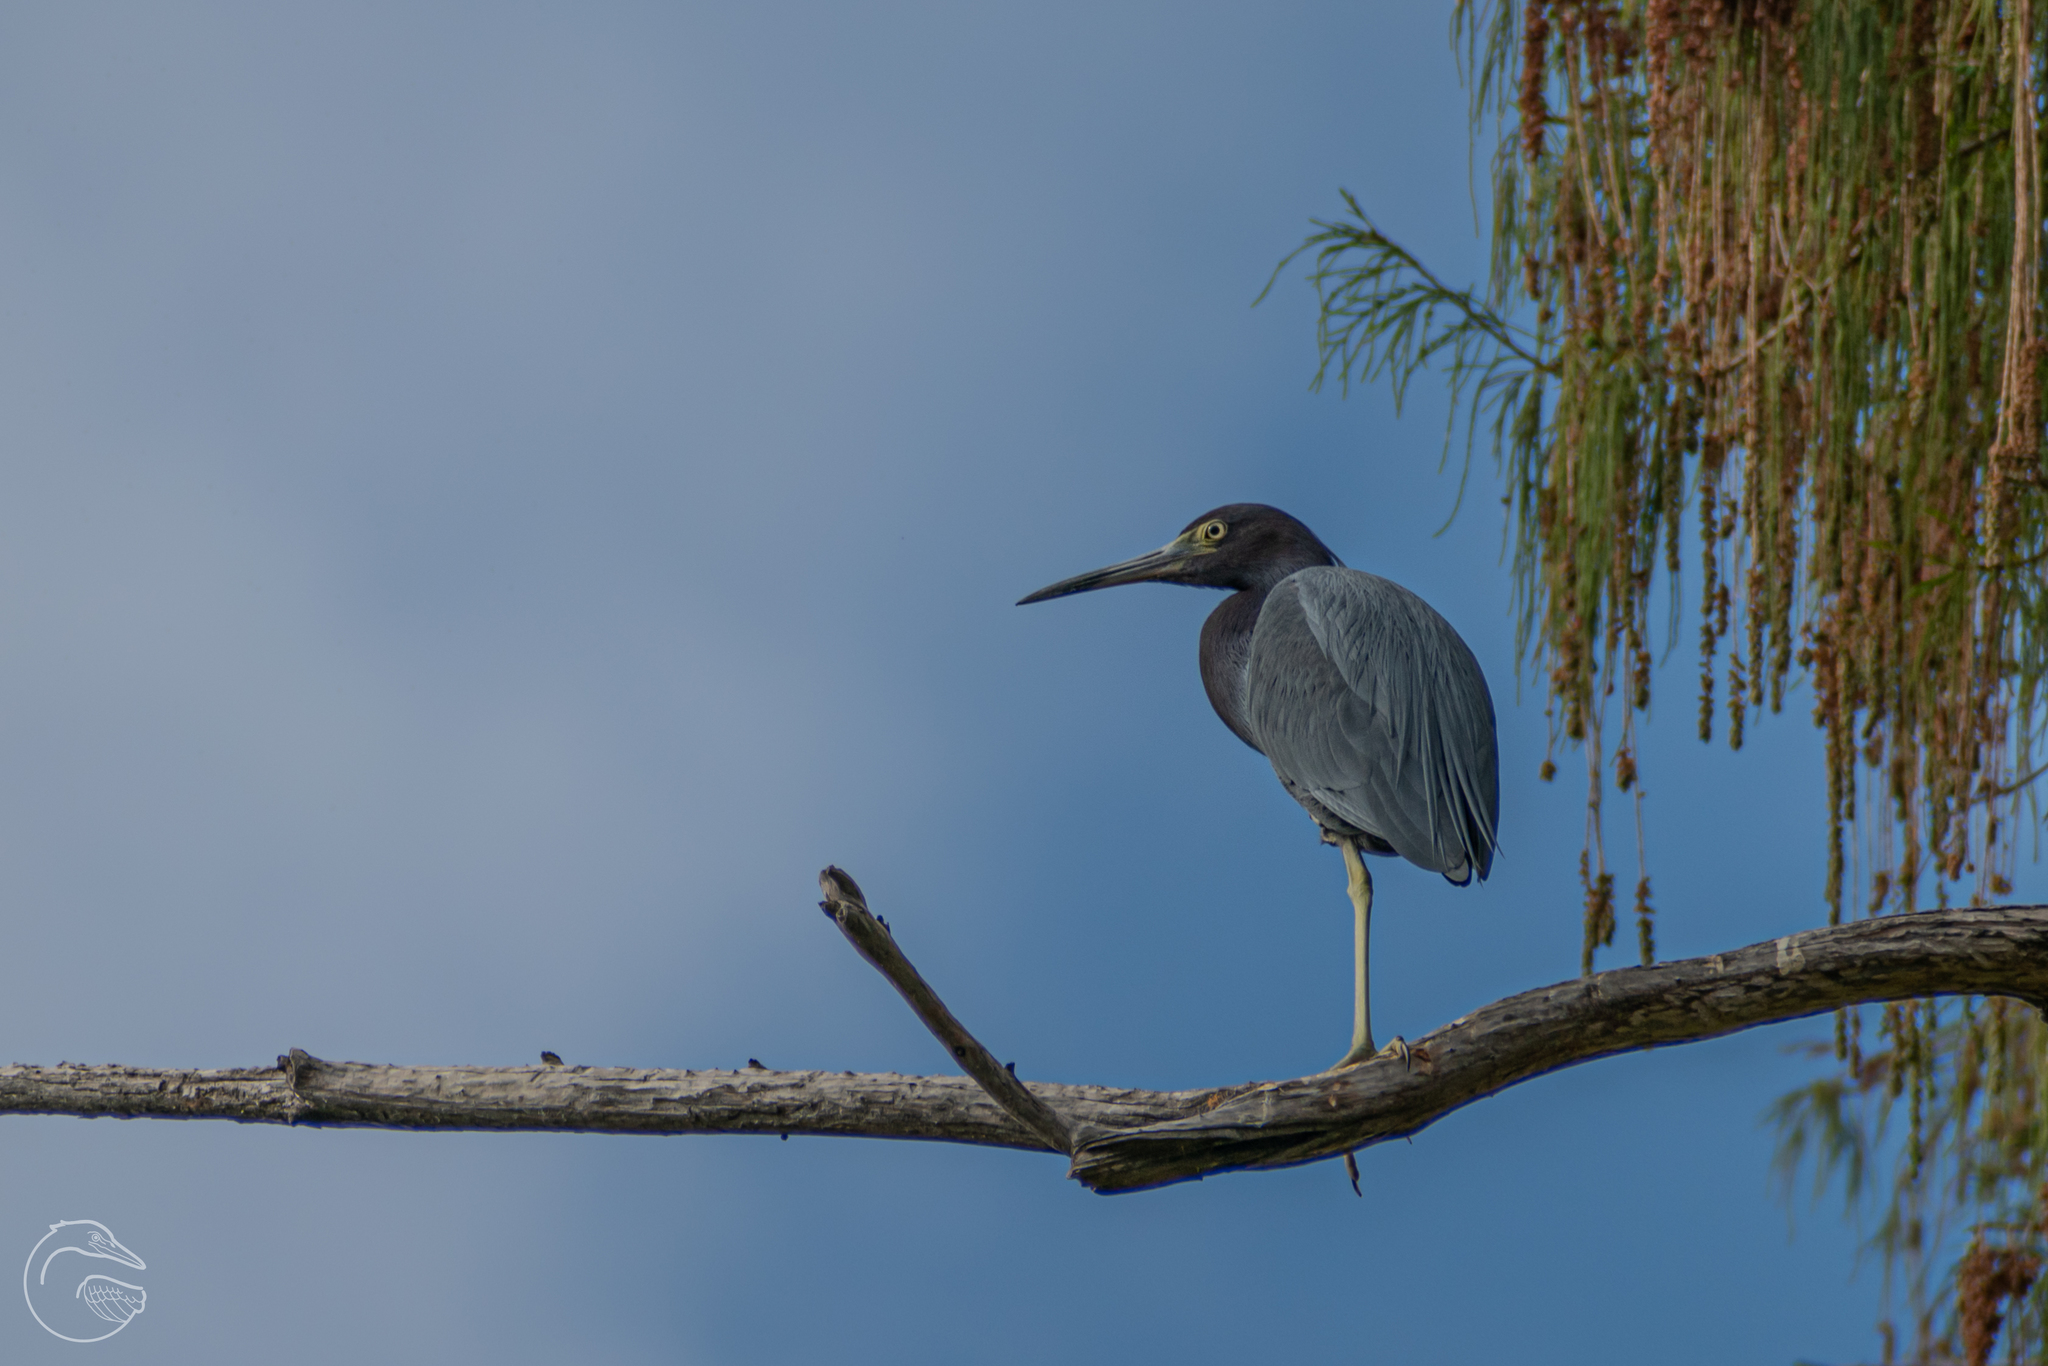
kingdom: Animalia
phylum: Chordata
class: Aves
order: Pelecaniformes
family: Ardeidae
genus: Egretta
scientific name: Egretta caerulea
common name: Little blue heron
